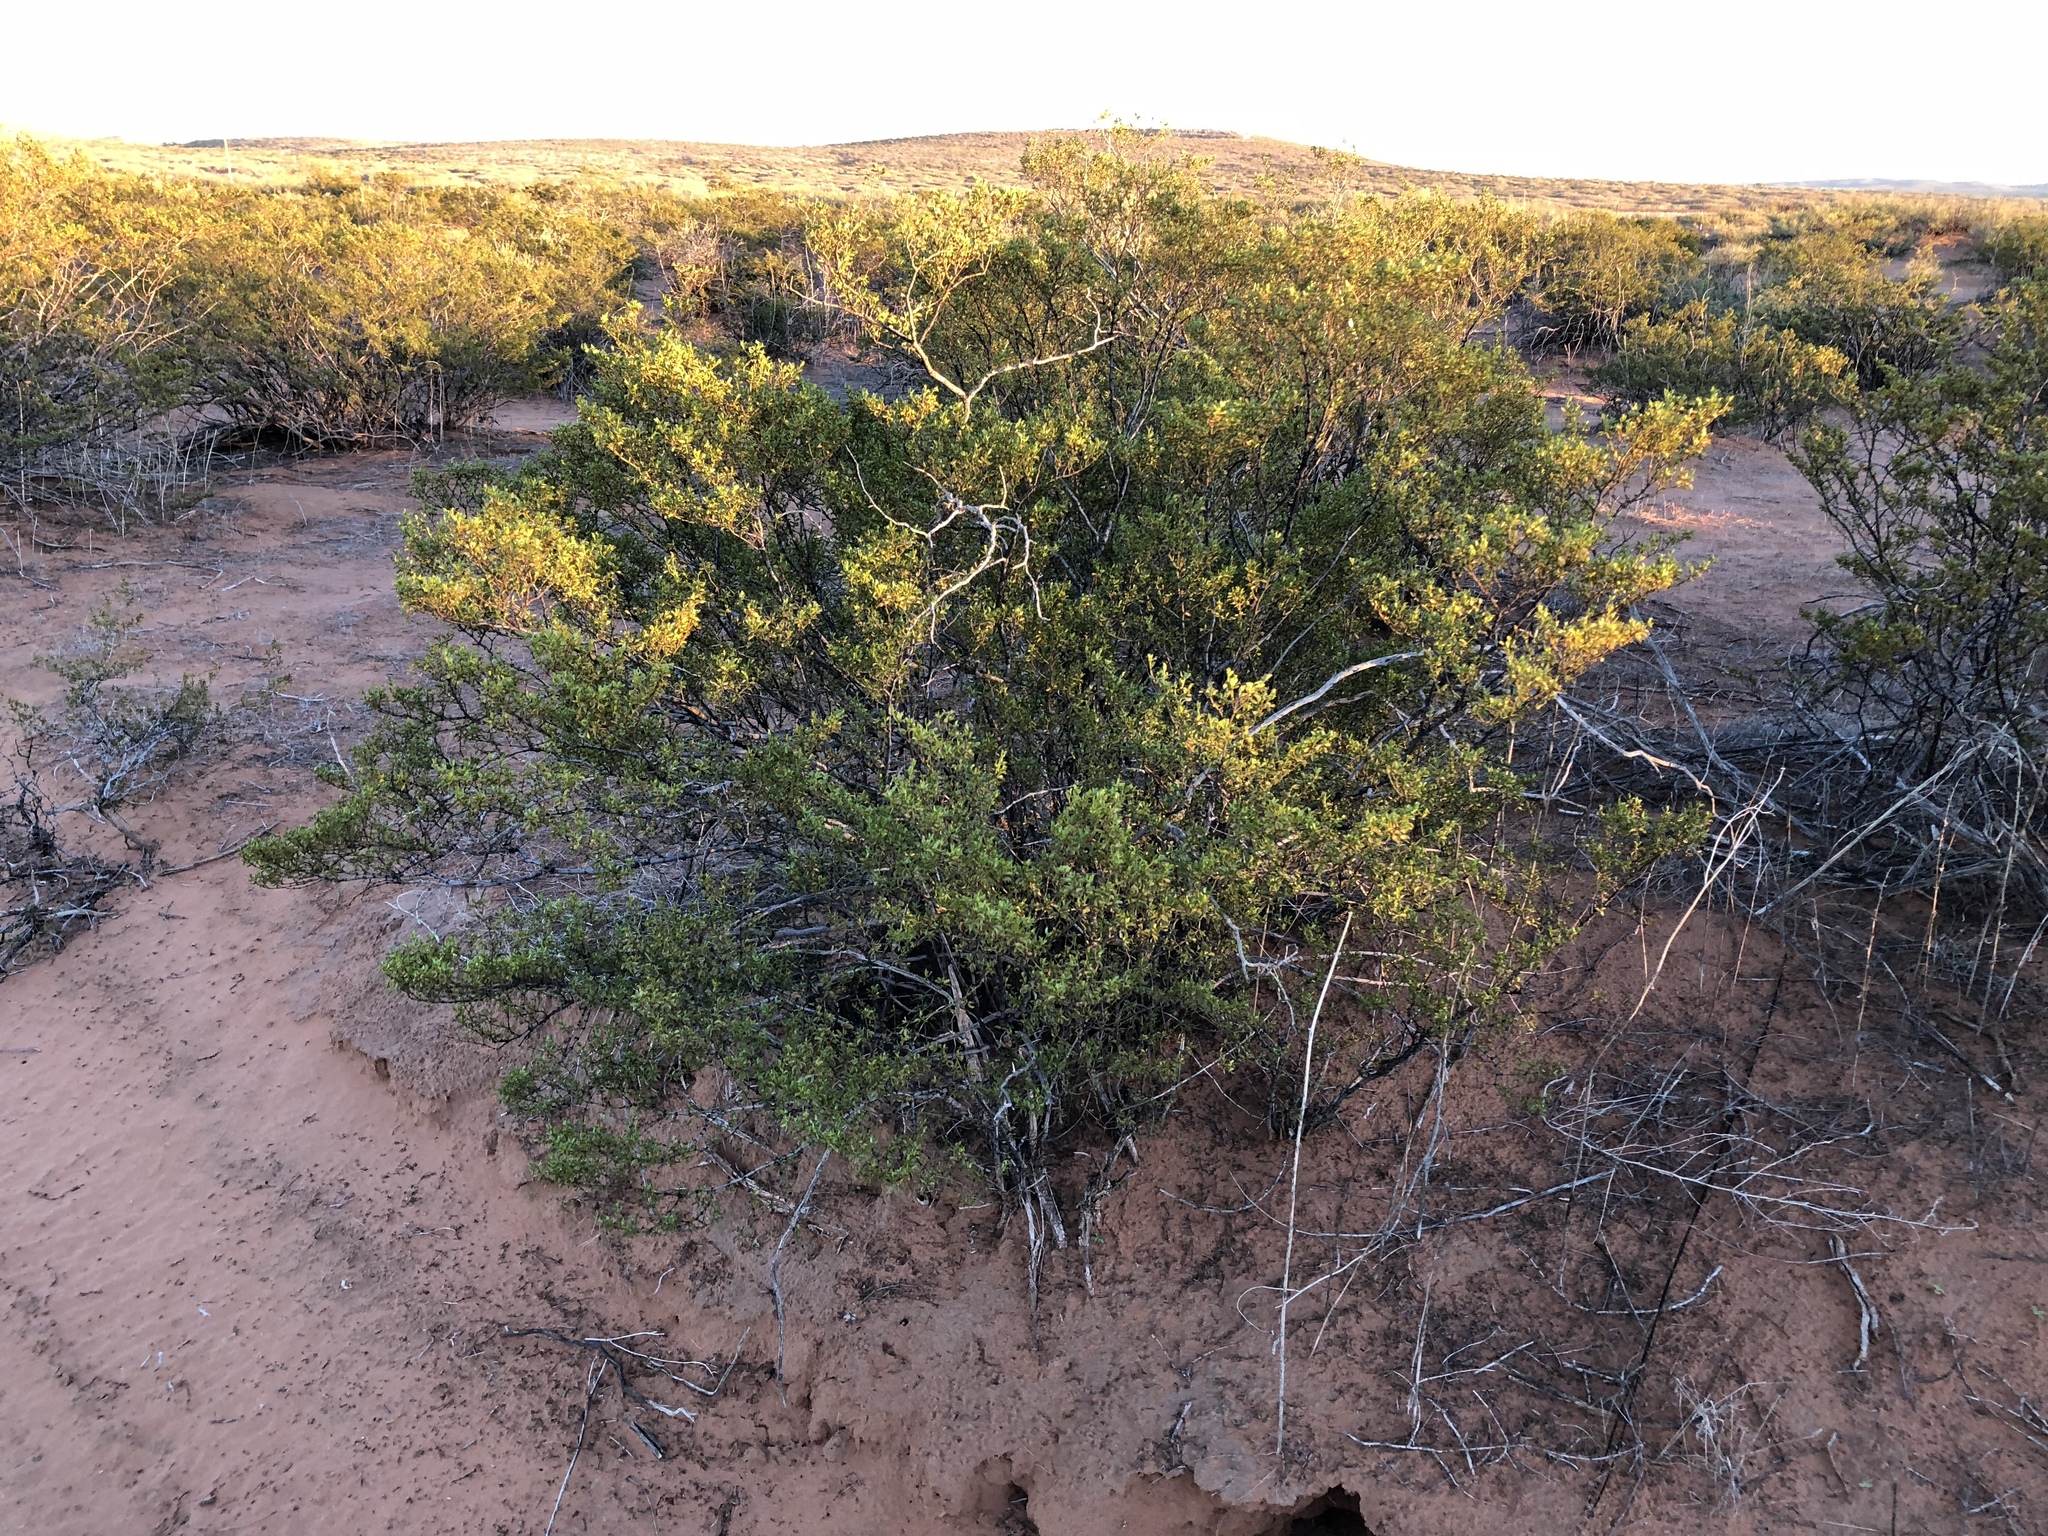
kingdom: Plantae
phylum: Tracheophyta
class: Magnoliopsida
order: Zygophyllales
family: Zygophyllaceae
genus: Larrea
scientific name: Larrea tridentata
